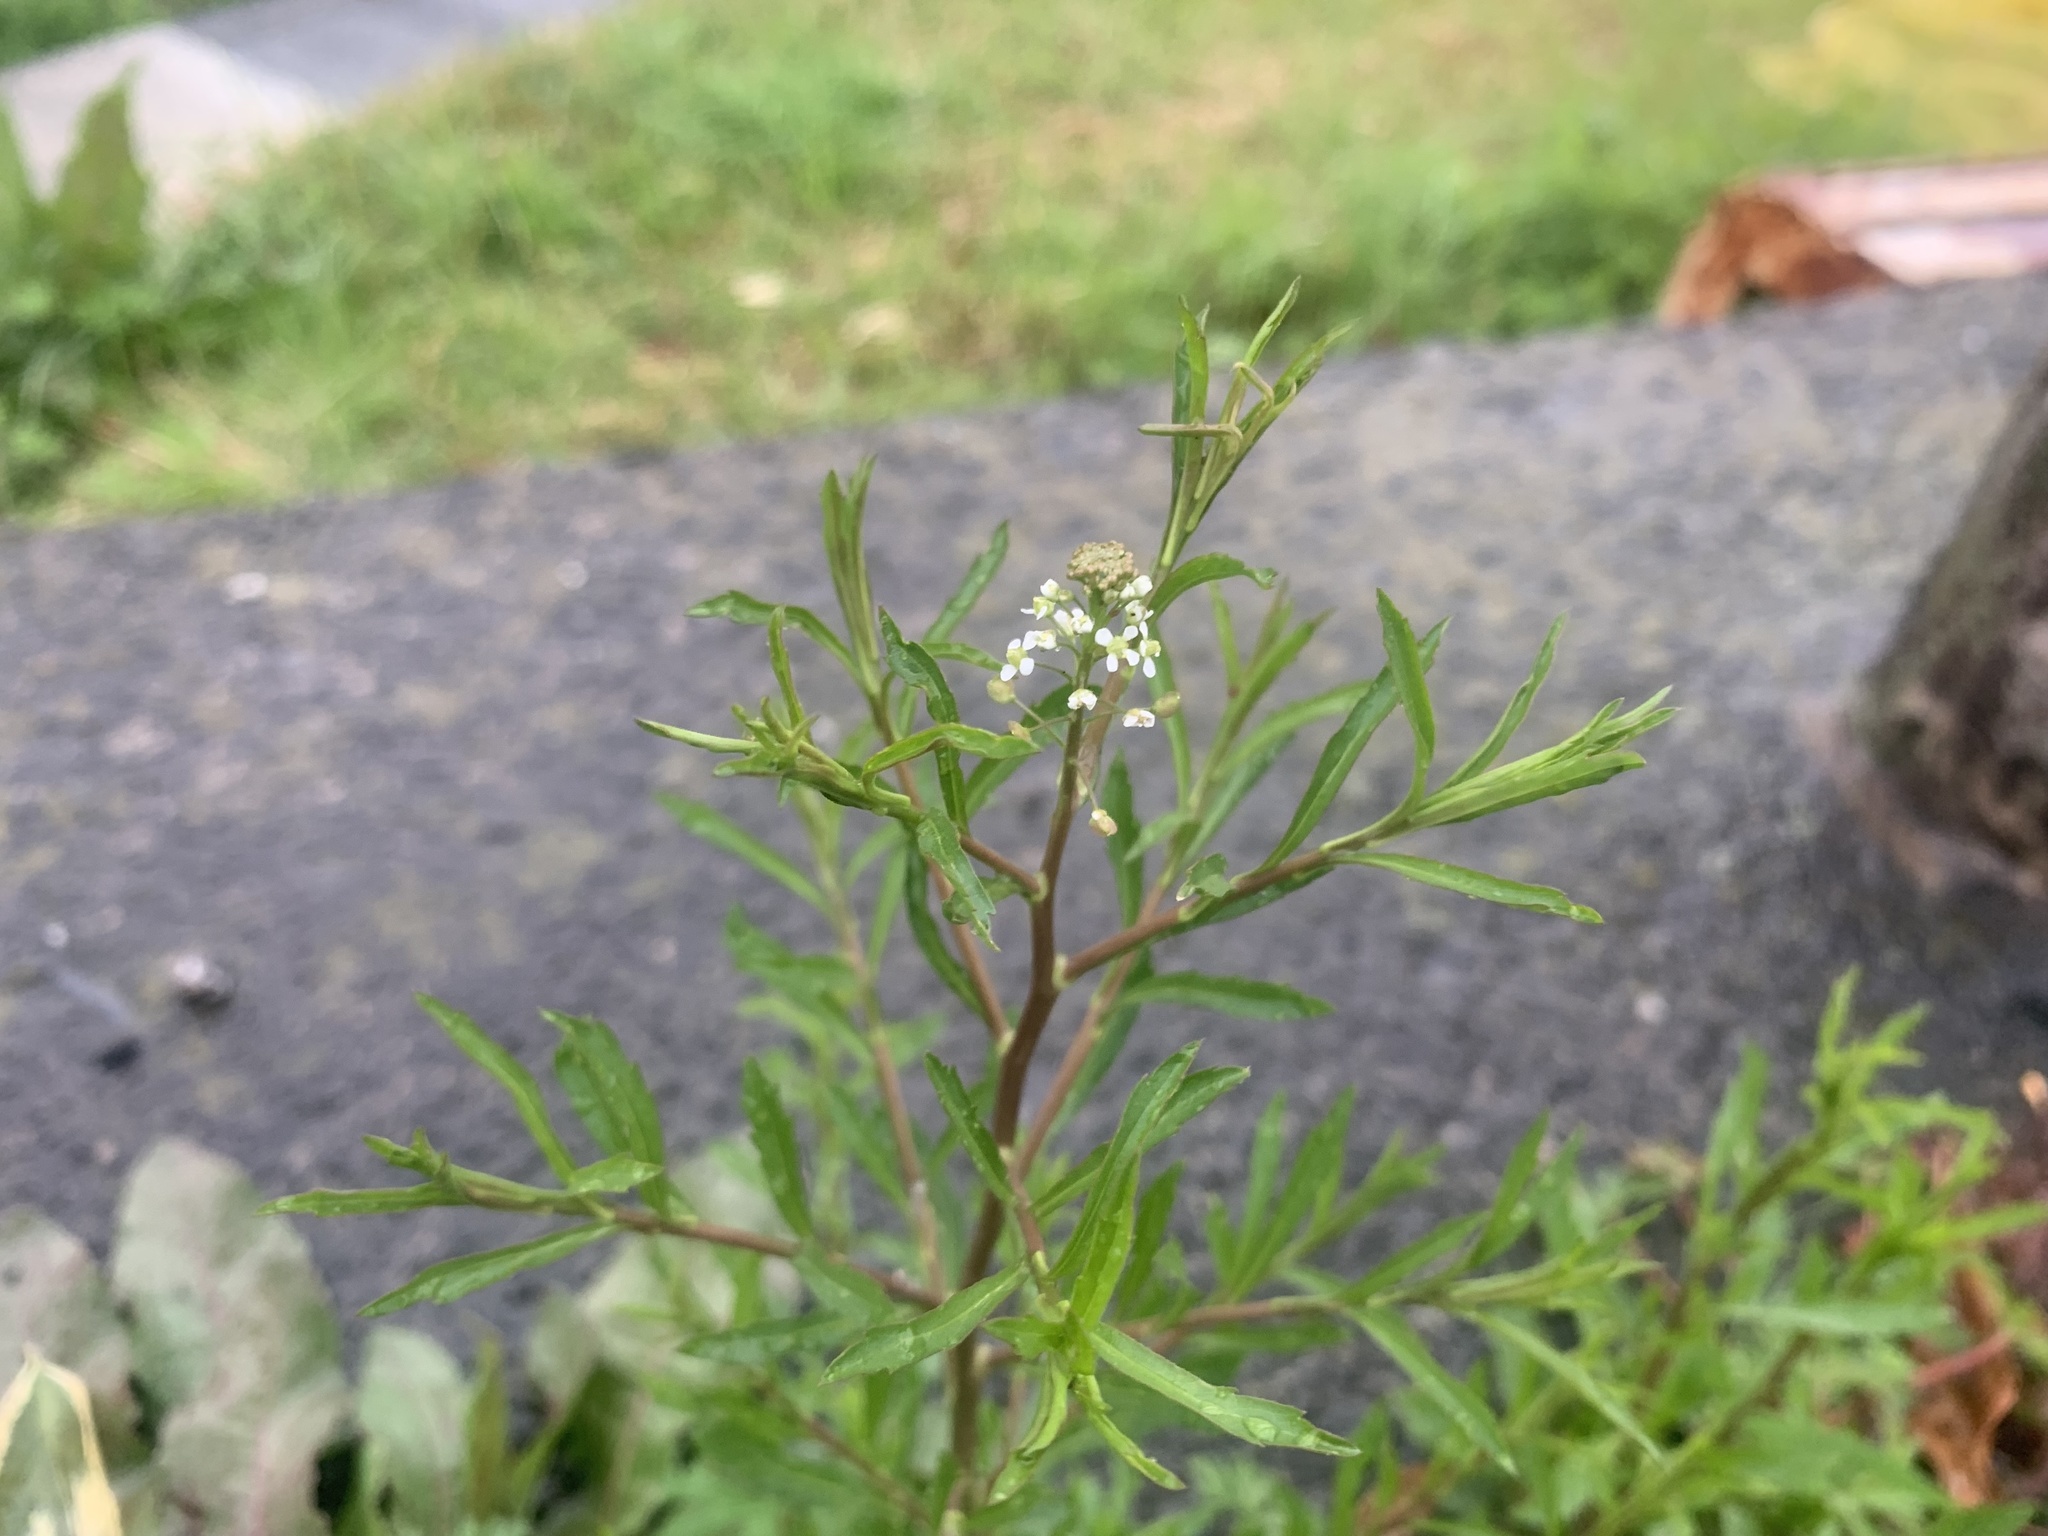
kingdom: Plantae
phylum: Tracheophyta
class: Magnoliopsida
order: Brassicales
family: Brassicaceae
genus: Lepidium
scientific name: Lepidium virginicum
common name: Least pepperwort
